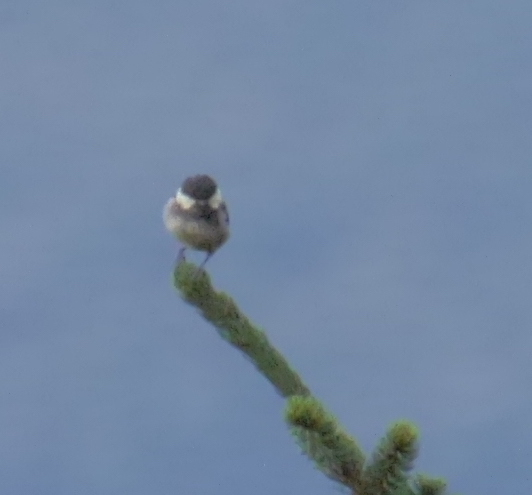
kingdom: Animalia
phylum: Chordata
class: Aves
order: Passeriformes
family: Paridae
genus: Periparus
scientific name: Periparus ater
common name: Coal tit
